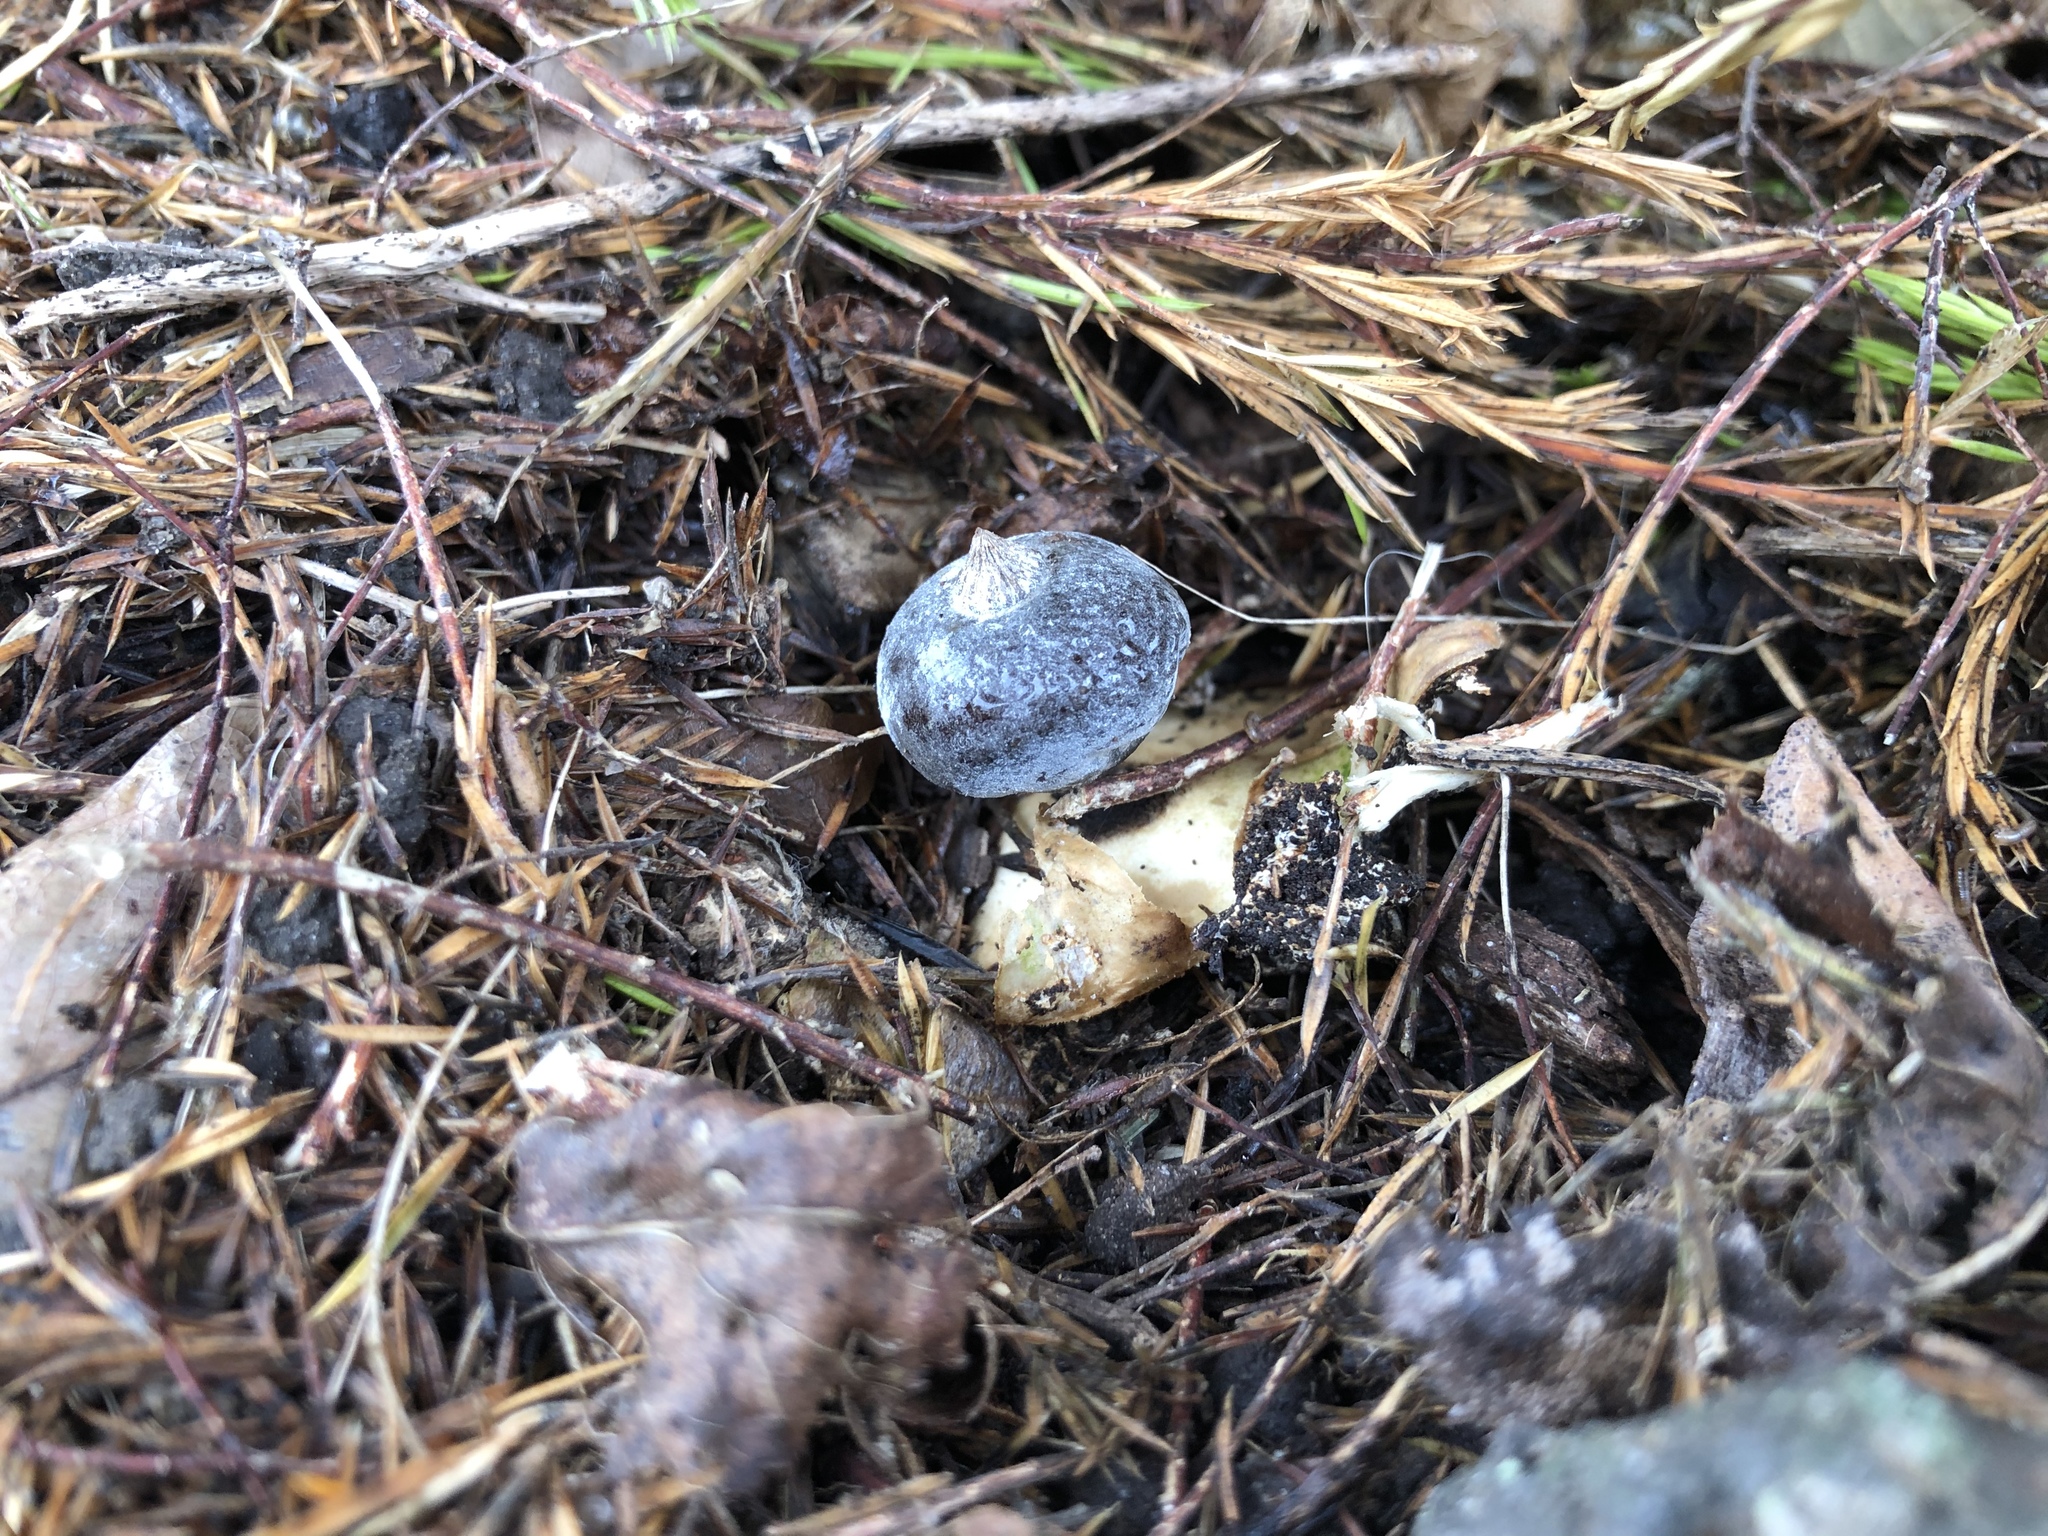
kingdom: Fungi
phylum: Basidiomycota
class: Agaricomycetes
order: Geastrales
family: Geastraceae
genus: Geastrum
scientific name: Geastrum pectinatum
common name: Beaked earthstar
